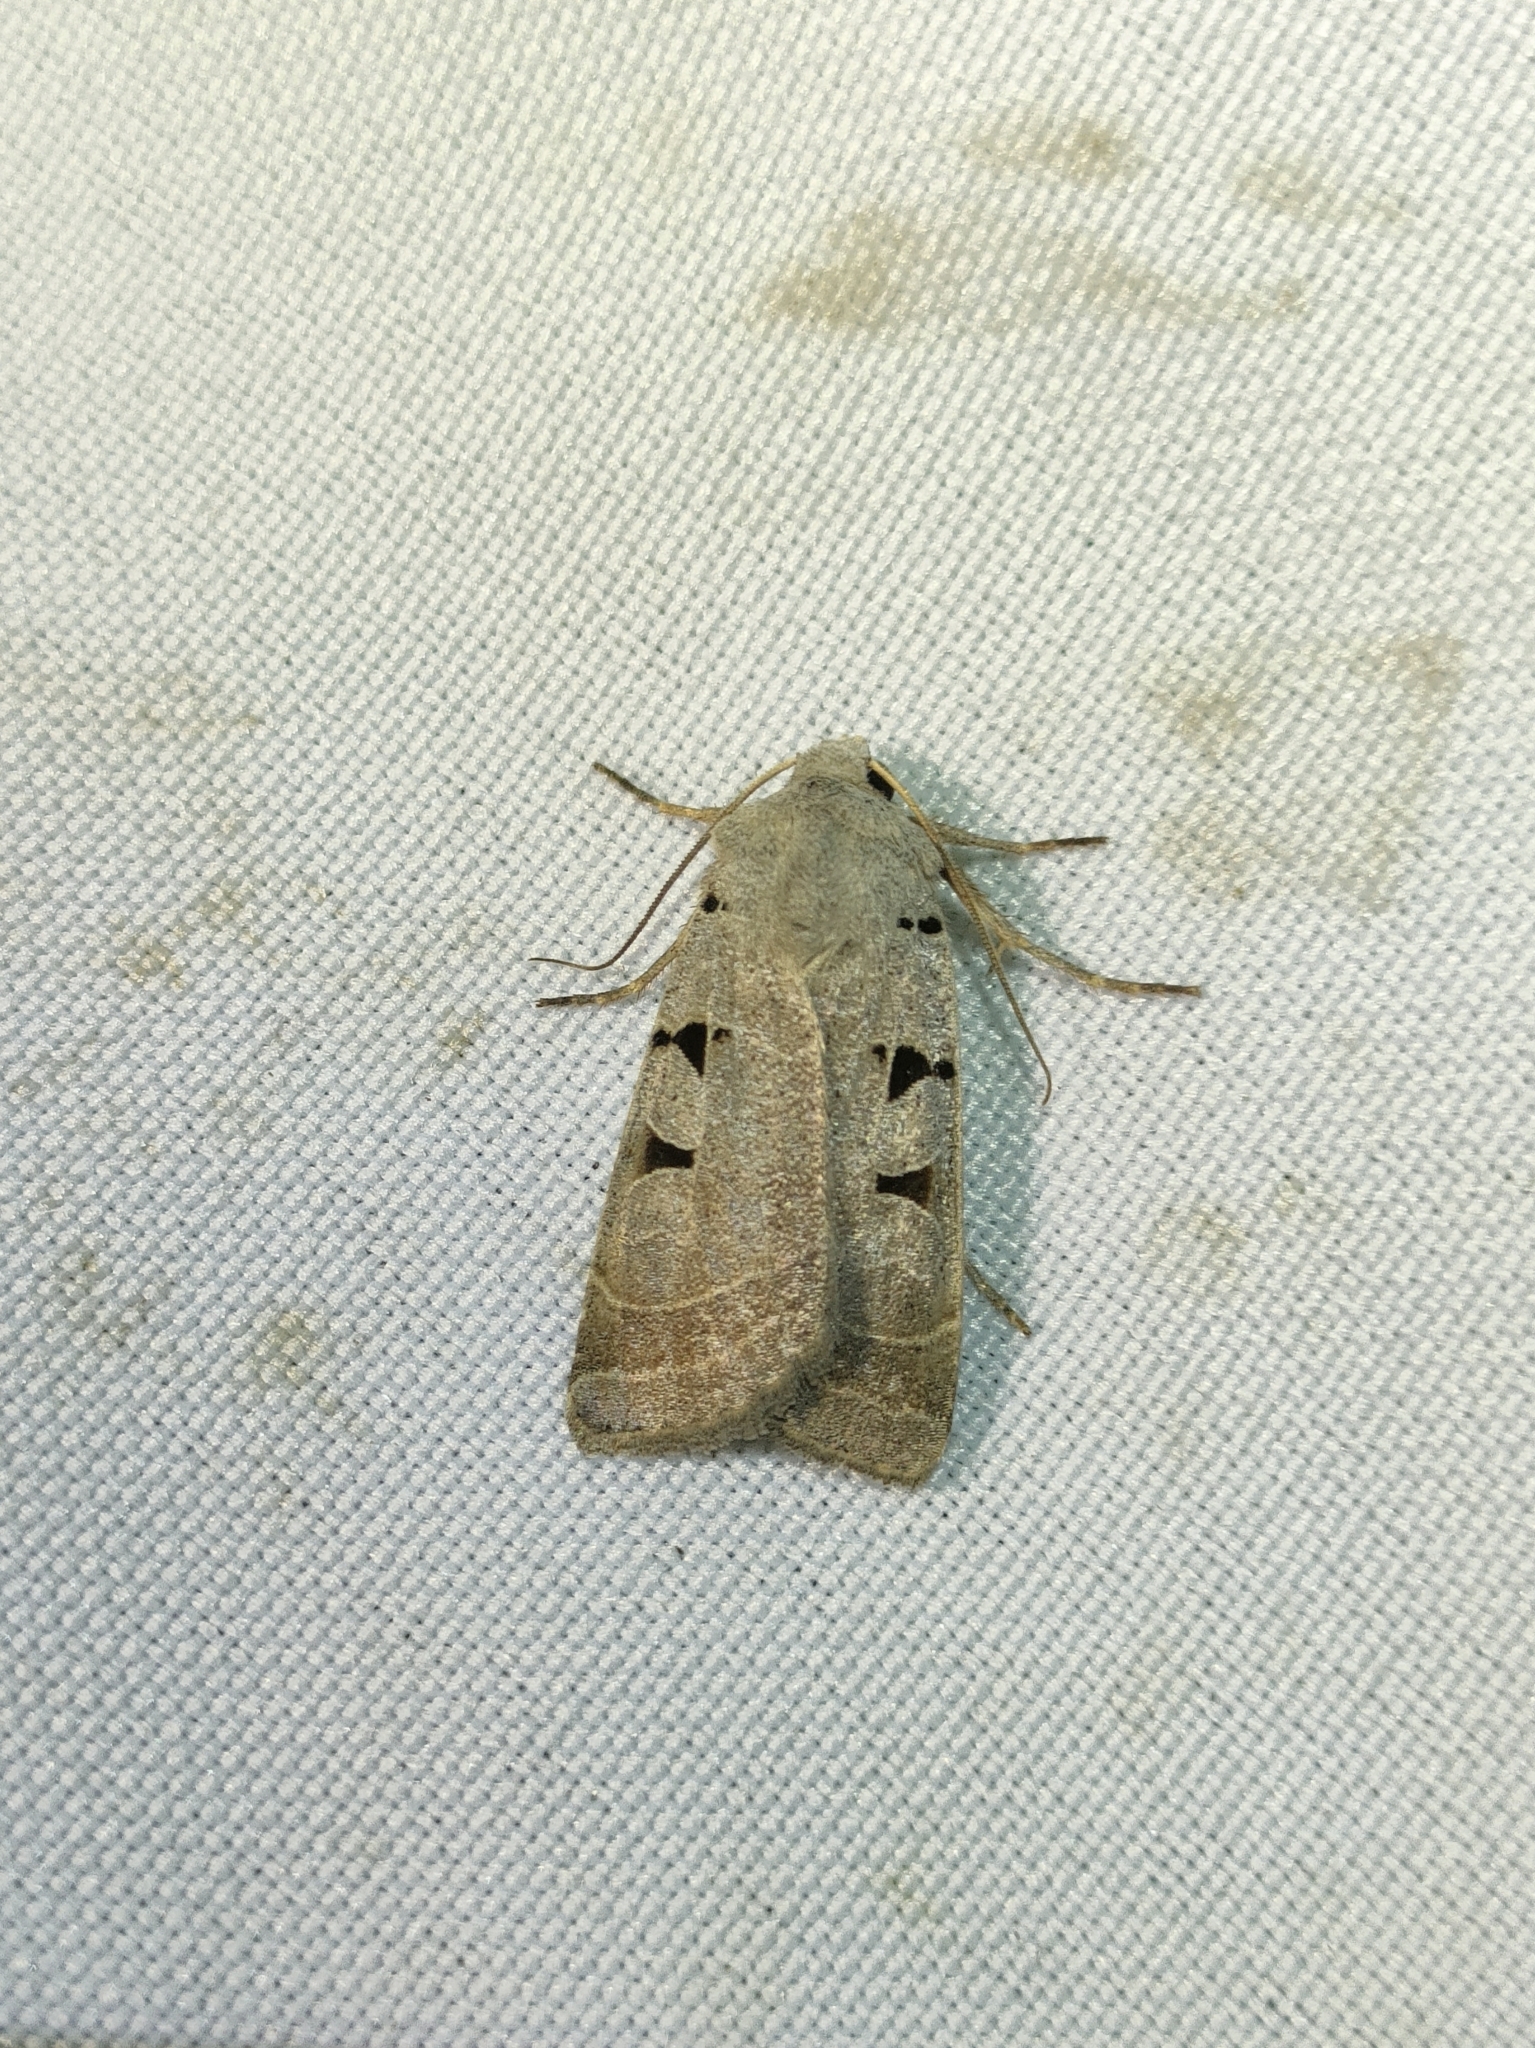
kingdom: Animalia
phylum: Arthropoda
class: Insecta
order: Lepidoptera
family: Noctuidae
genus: Eugnorisma
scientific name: Eugnorisma glareosa
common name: Autumnal rustic
